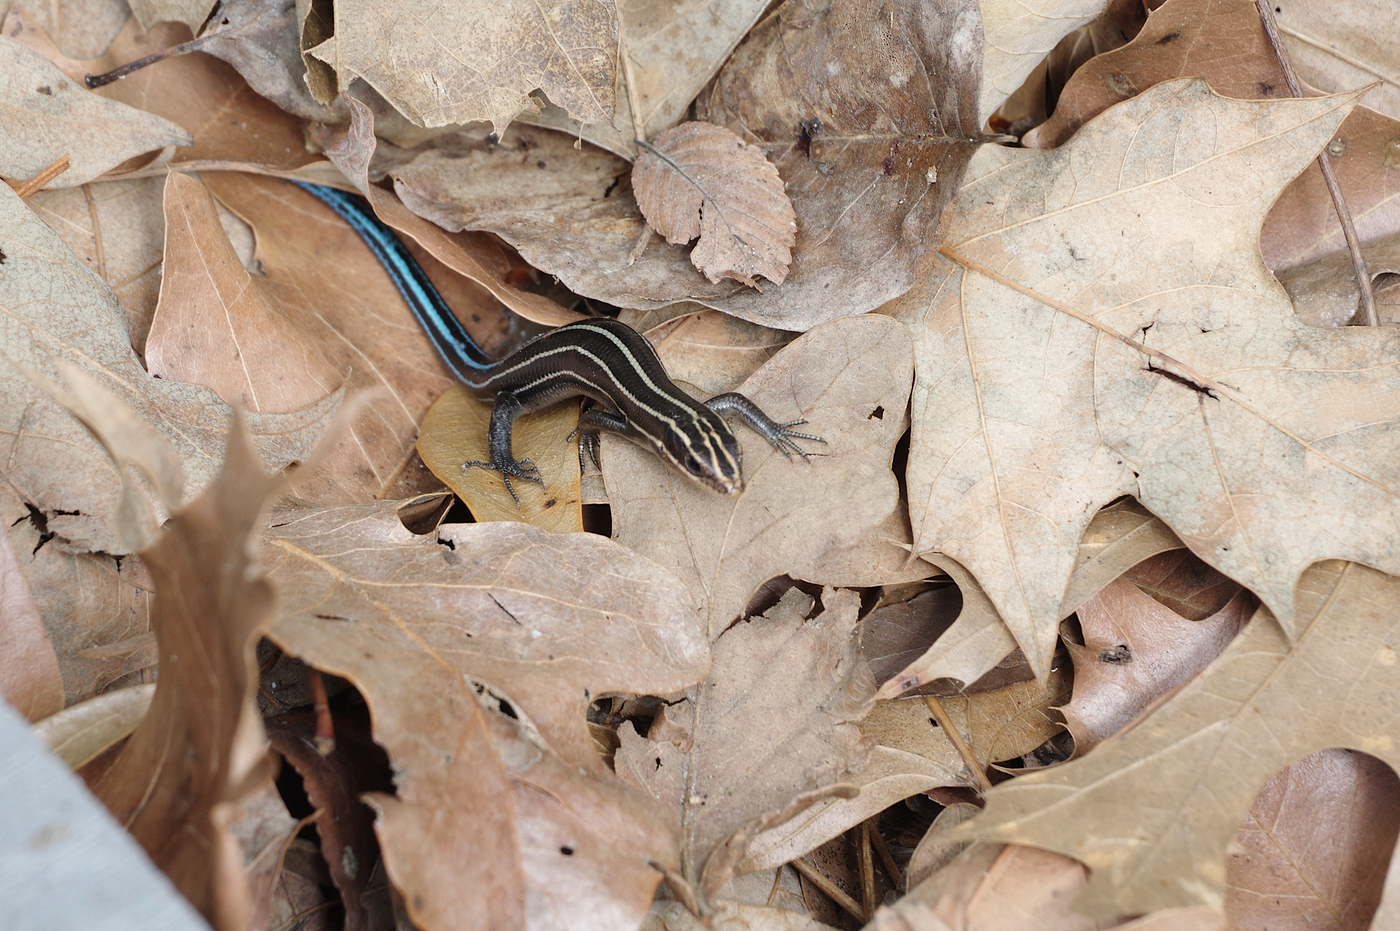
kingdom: Animalia
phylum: Chordata
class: Squamata
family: Scincidae
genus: Plestiodon
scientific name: Plestiodon fasciatus
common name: Five-lined skink
